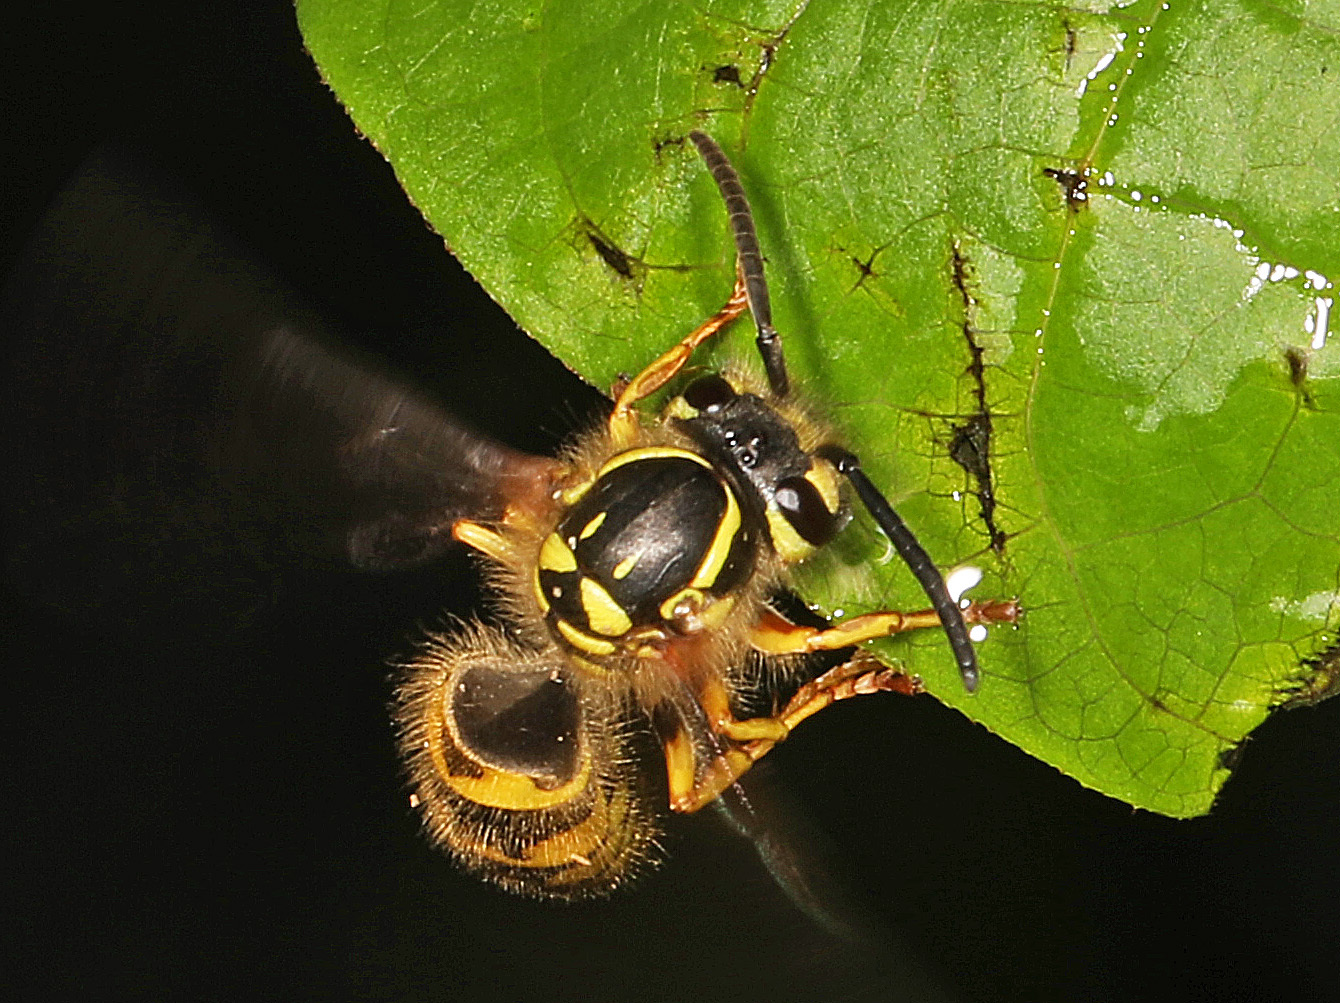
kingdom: Animalia
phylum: Arthropoda
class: Insecta
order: Hymenoptera
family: Vespidae
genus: Vespula
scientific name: Vespula flavopilosa
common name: Downy yellowjacket
